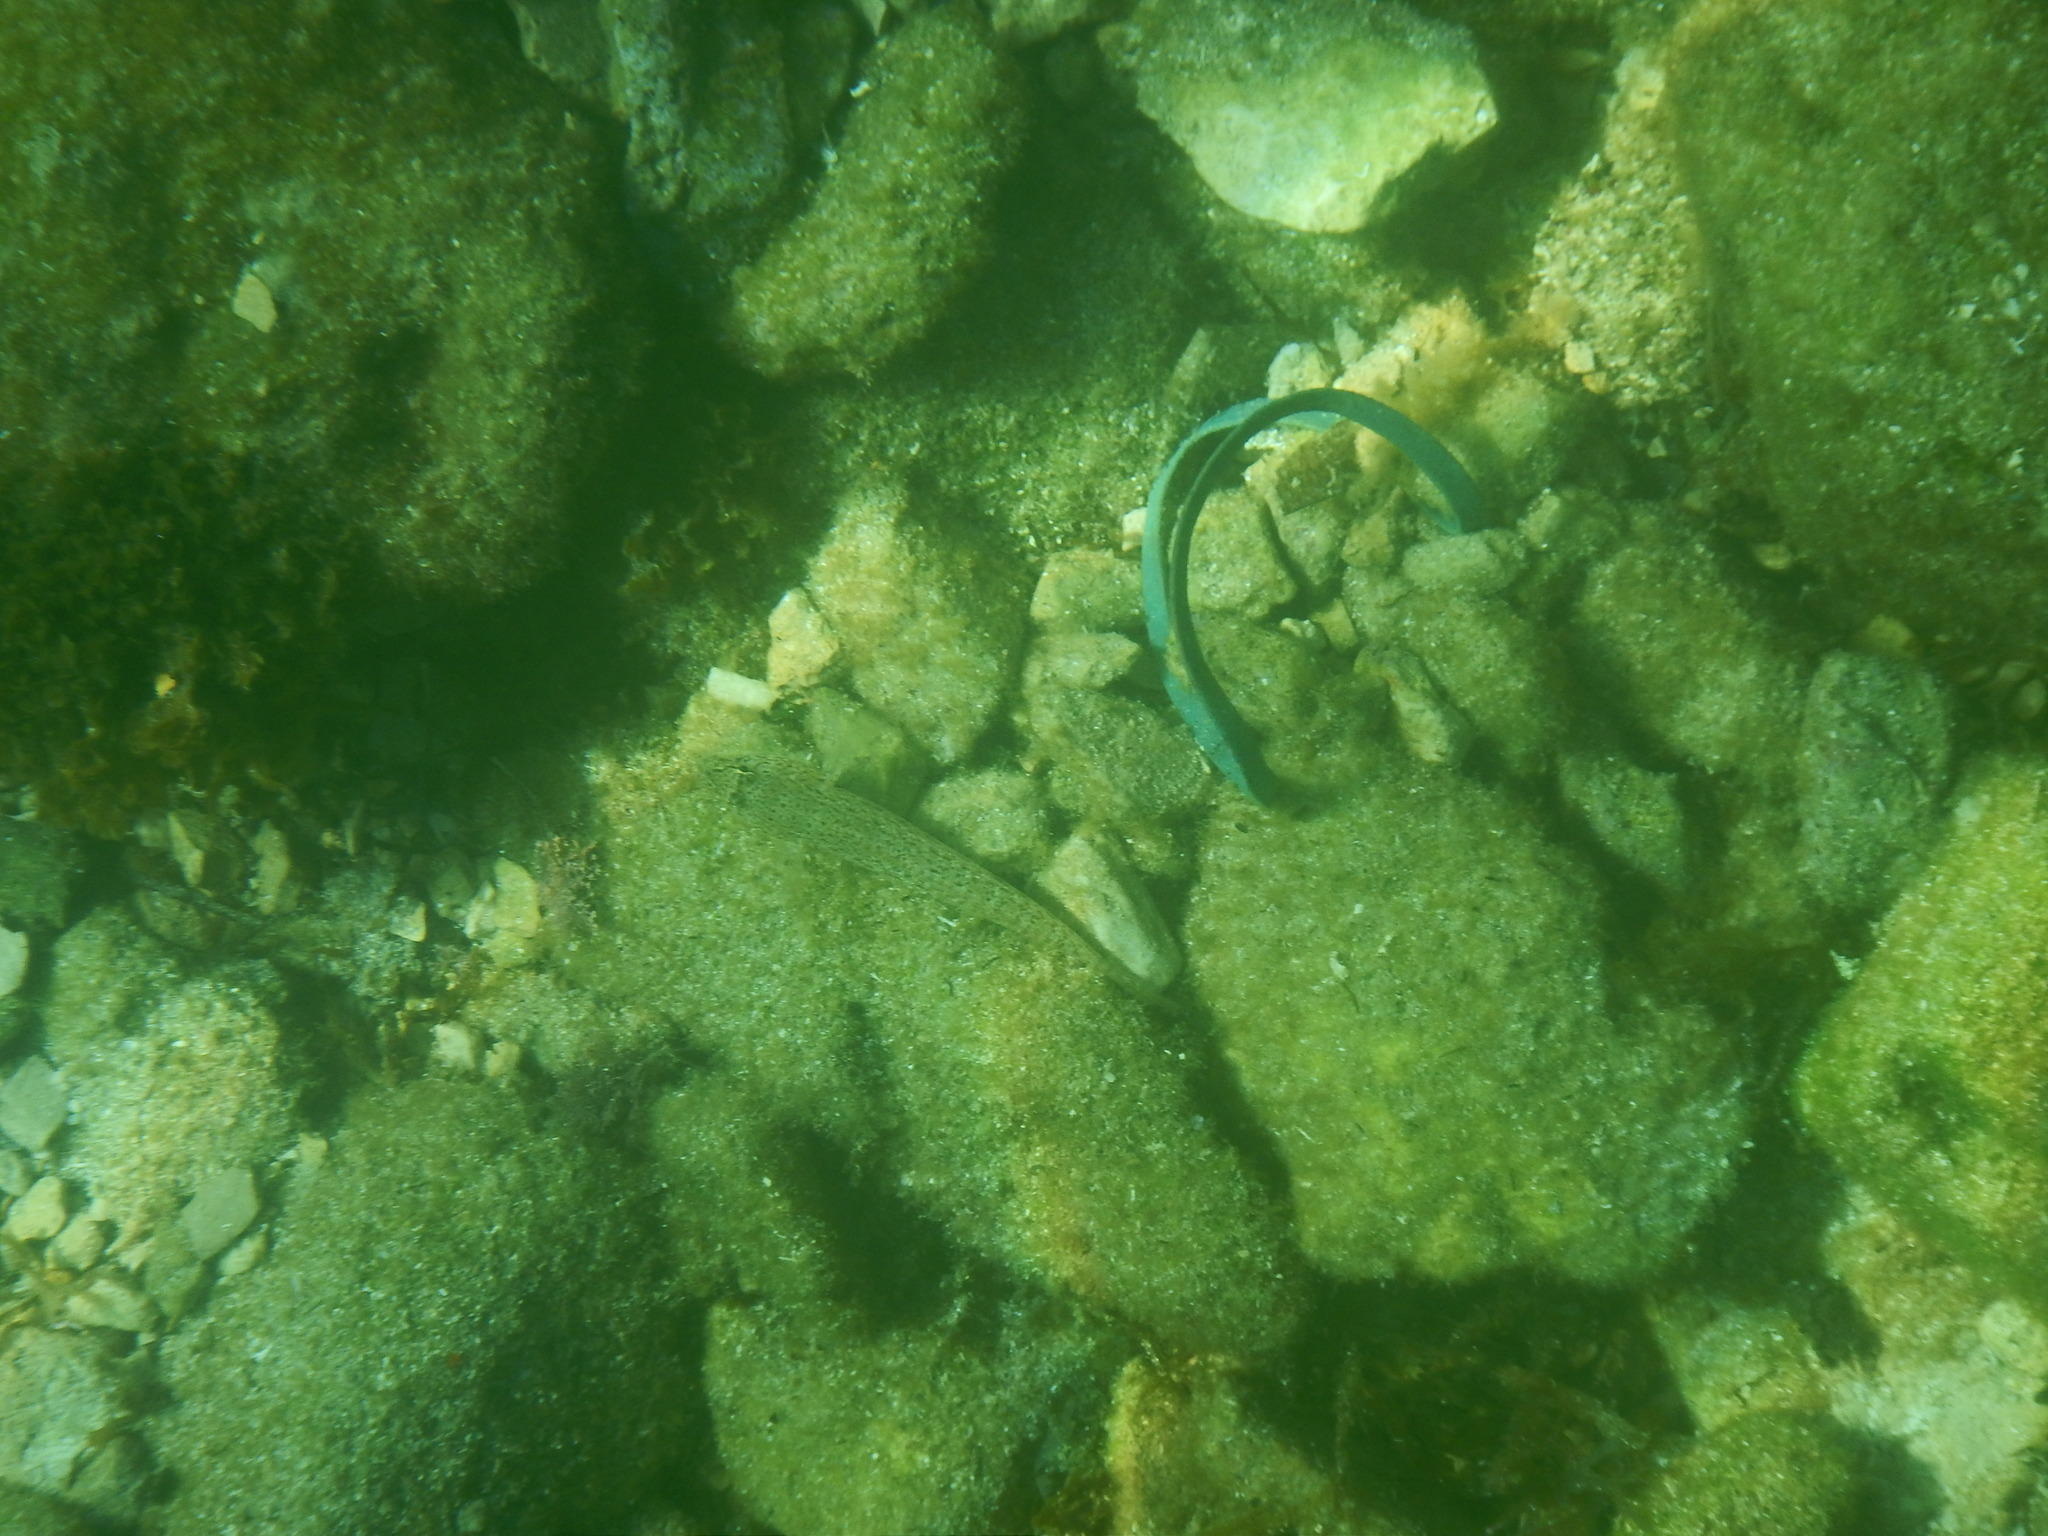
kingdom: Animalia
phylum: Chordata
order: Perciformes
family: Gobiidae
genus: Gobius
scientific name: Gobius incognitus
